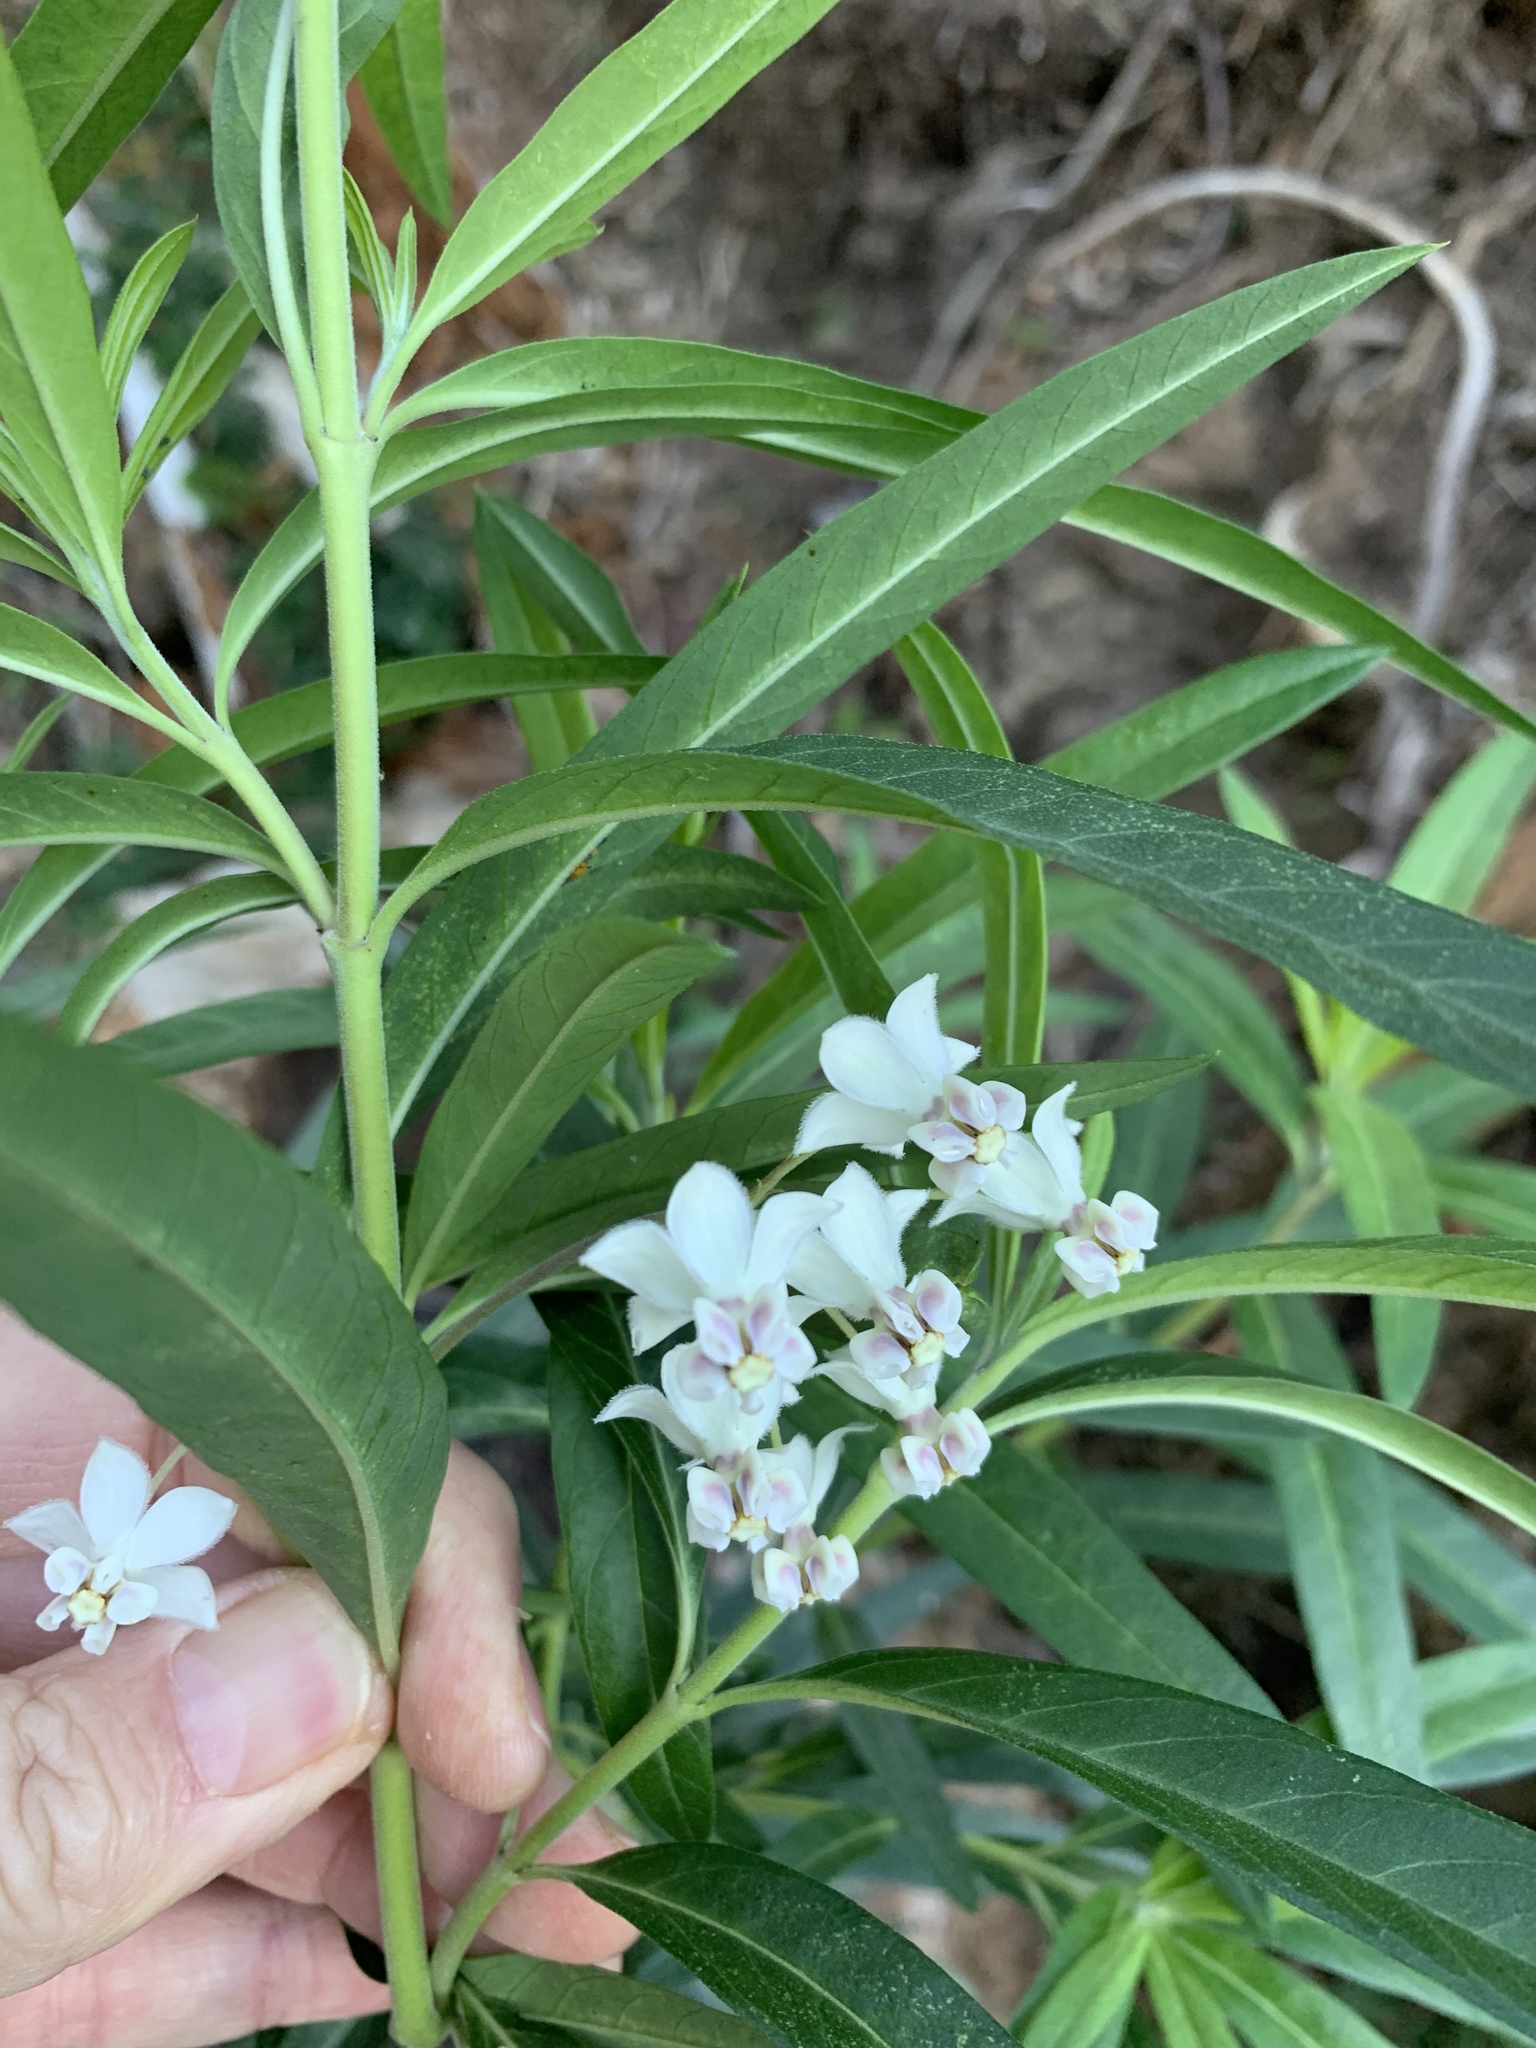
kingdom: Plantae
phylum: Tracheophyta
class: Magnoliopsida
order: Gentianales
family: Apocynaceae
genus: Gomphocarpus
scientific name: Gomphocarpus physocarpus
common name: Balloon cotton bush
